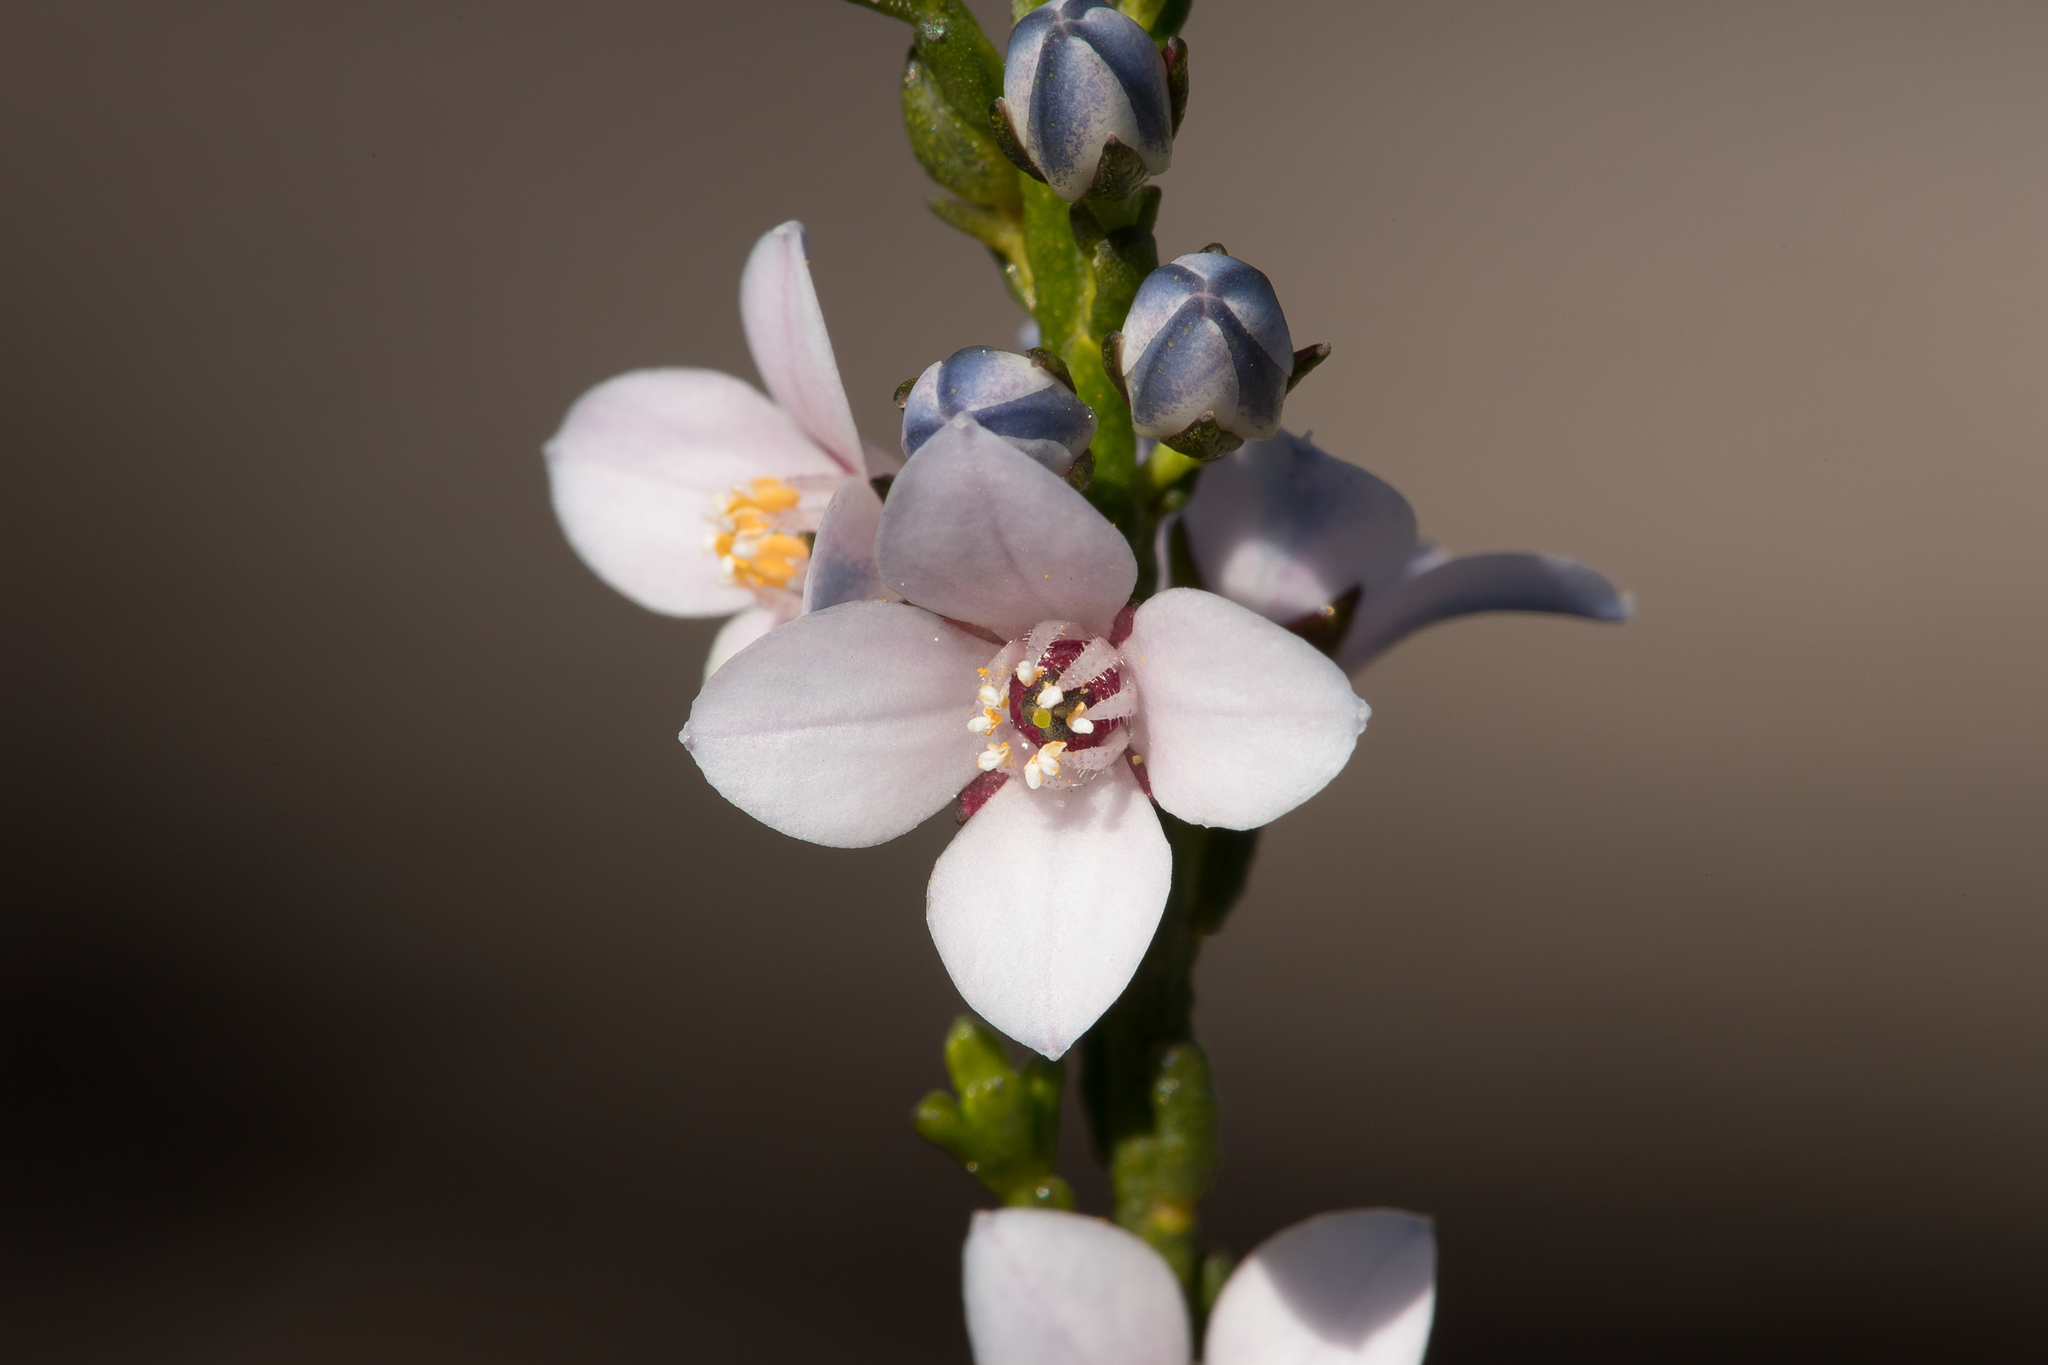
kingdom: Plantae
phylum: Tracheophyta
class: Magnoliopsida
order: Sapindales
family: Rutaceae
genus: Cyanothamnus
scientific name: Cyanothamnus coerulescens
